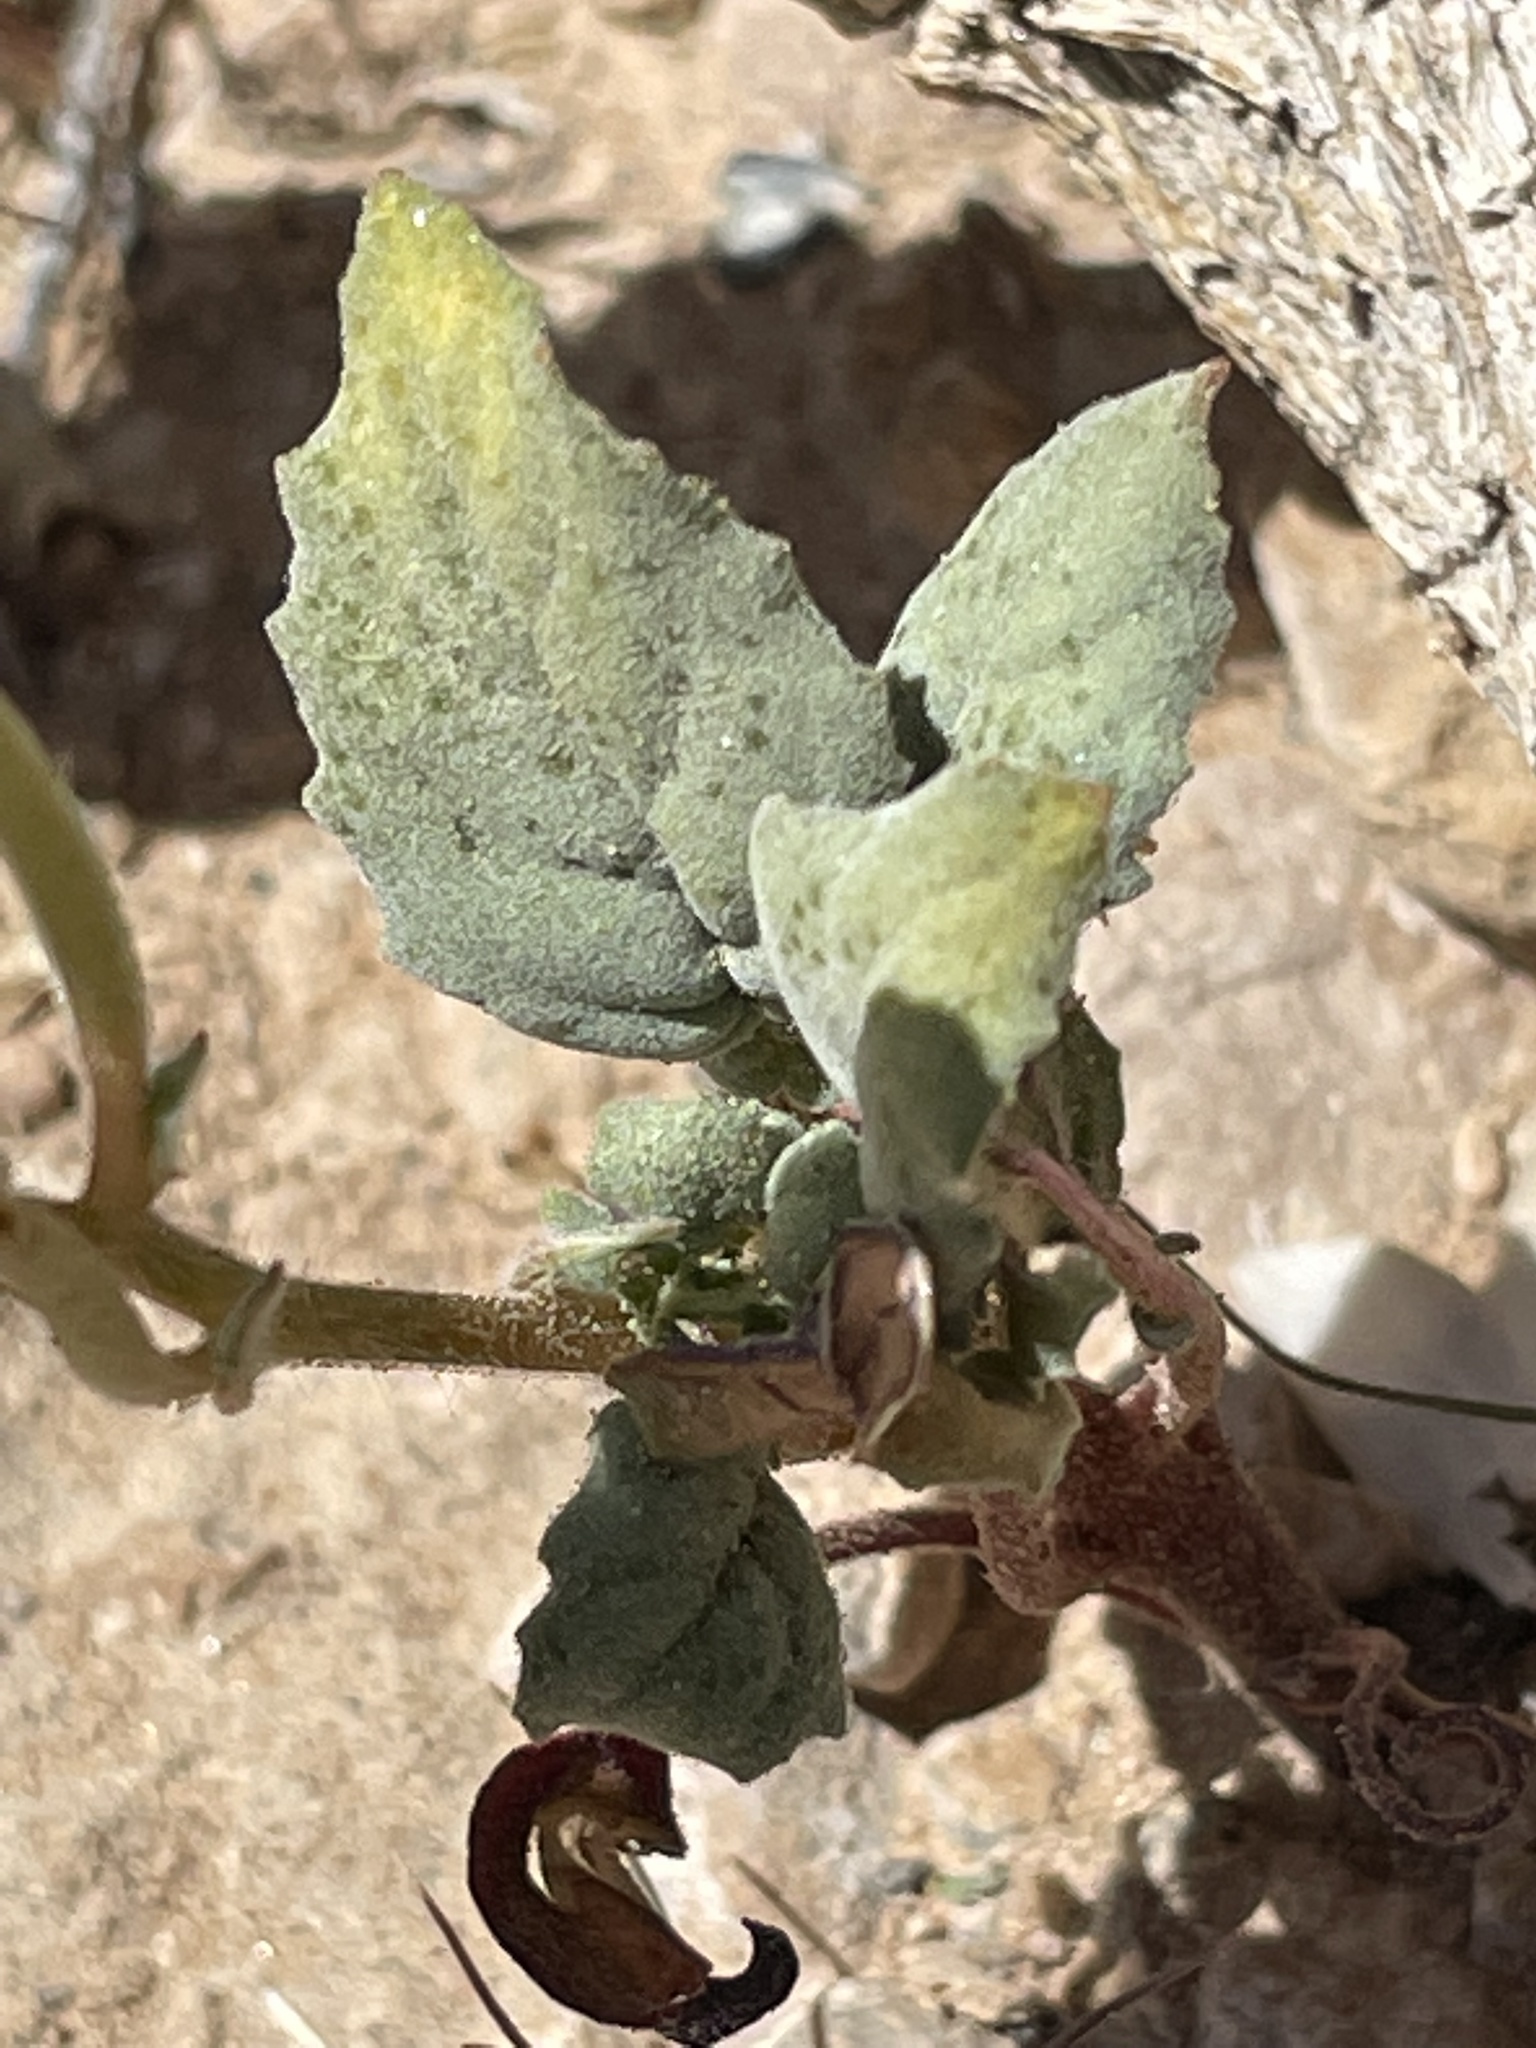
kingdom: Plantae
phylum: Tracheophyta
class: Magnoliopsida
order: Myrtales
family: Onagraceae
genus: Chylismia
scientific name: Chylismia brevipes
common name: Yellow cups
